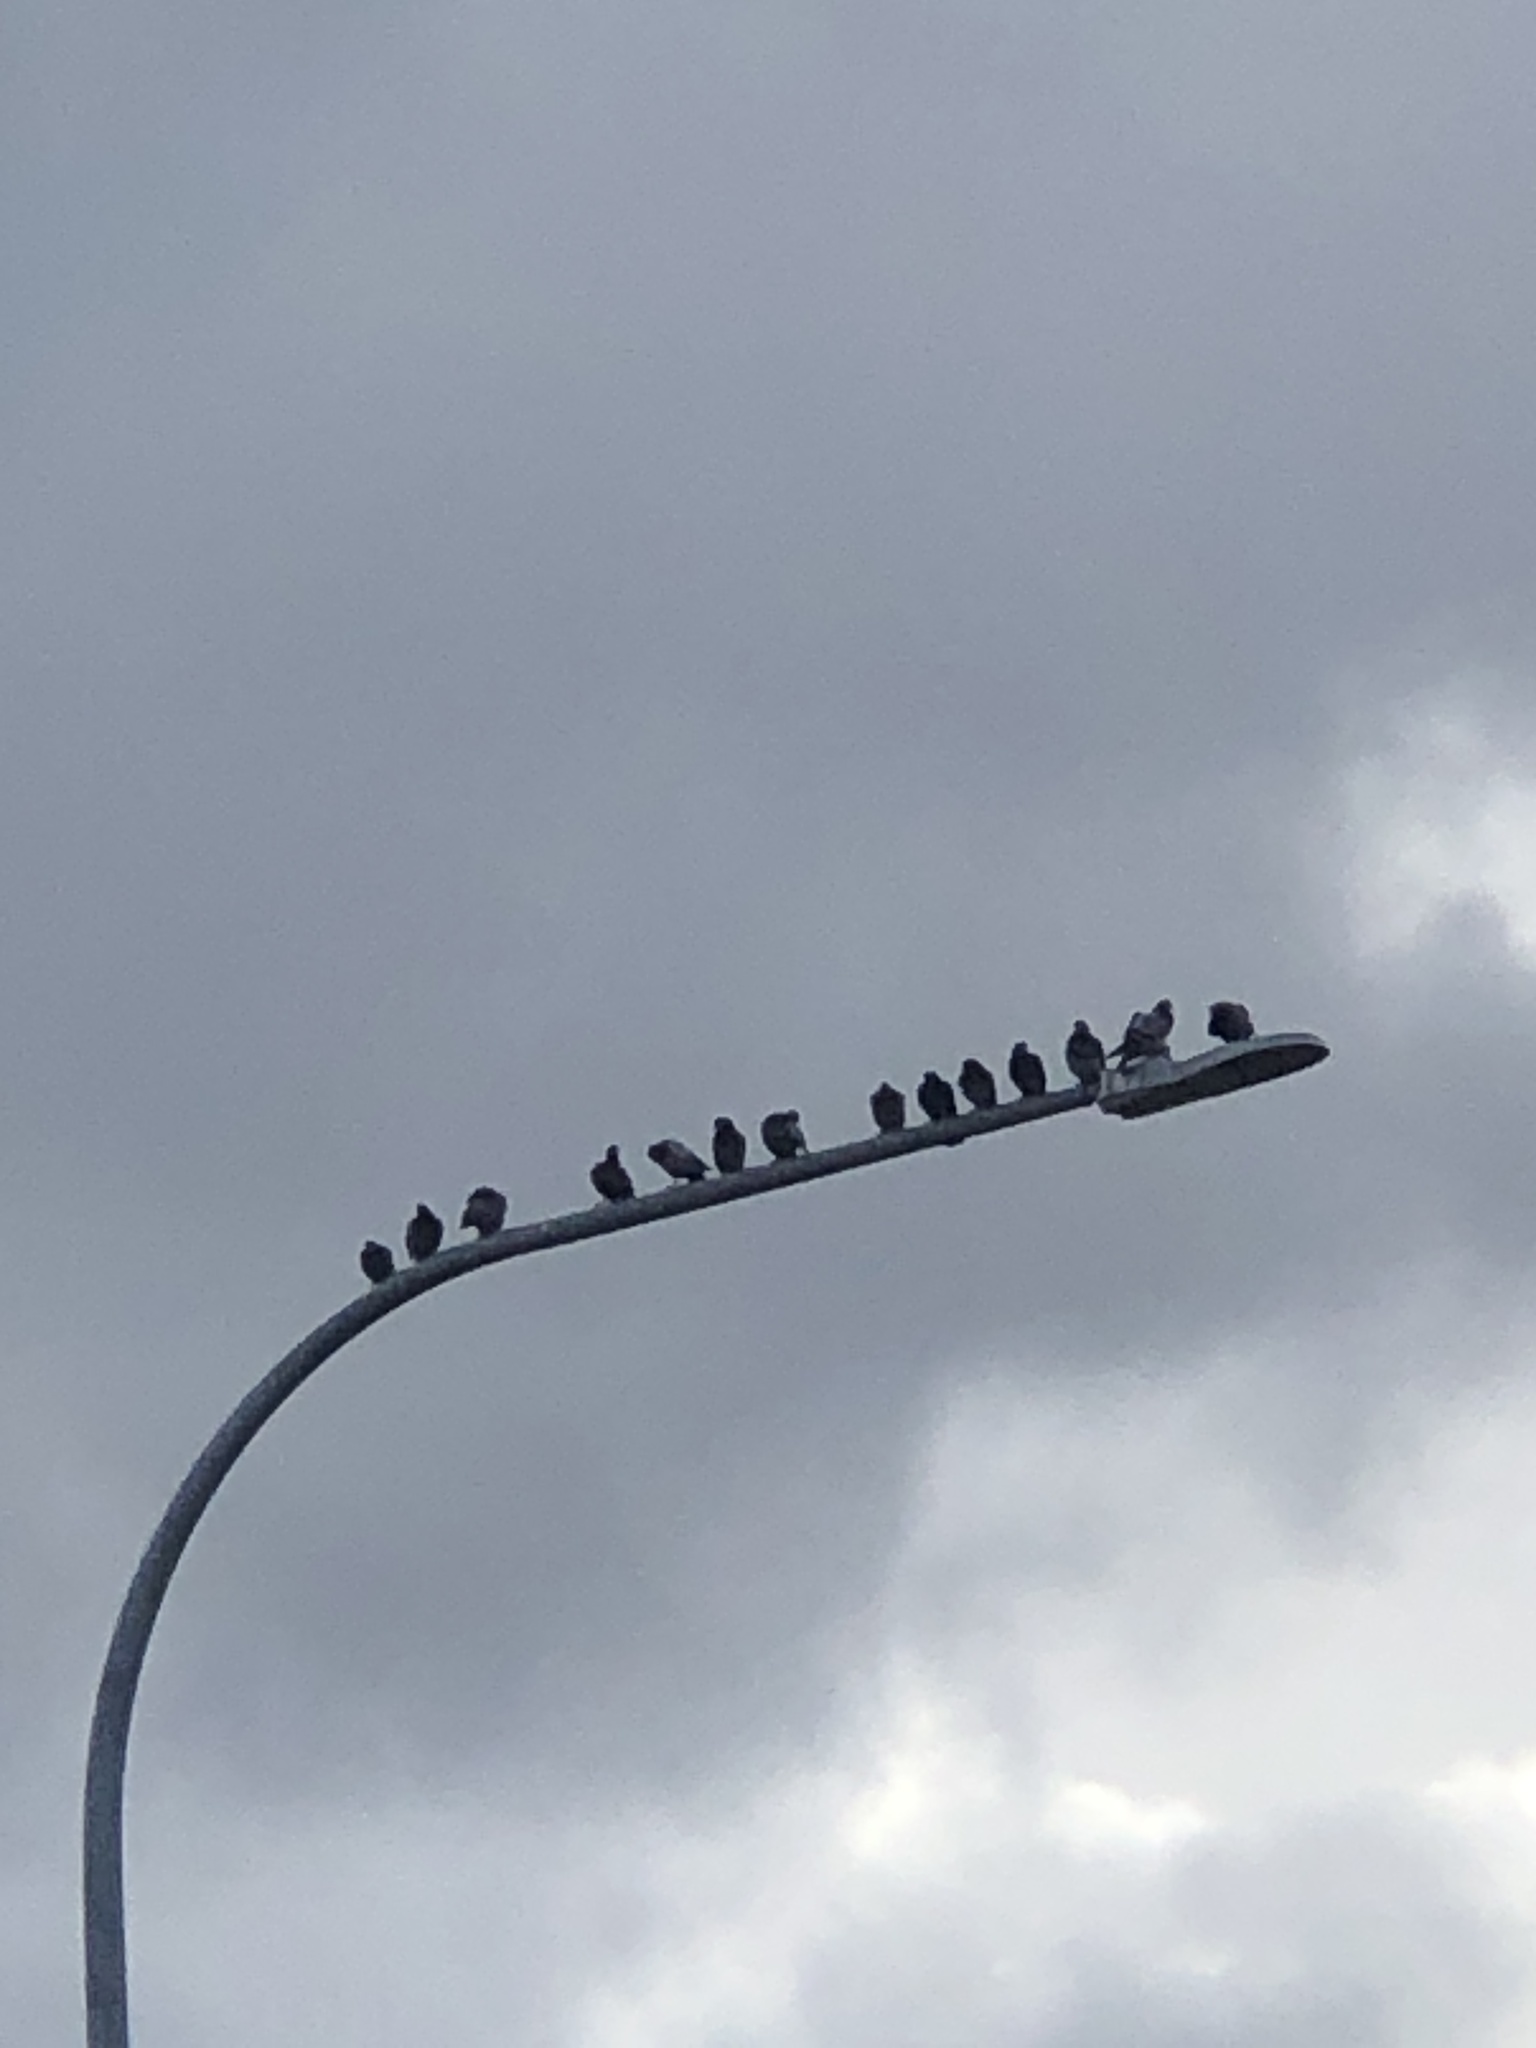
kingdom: Animalia
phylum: Chordata
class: Aves
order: Columbiformes
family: Columbidae
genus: Columba
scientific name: Columba livia
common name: Rock pigeon
